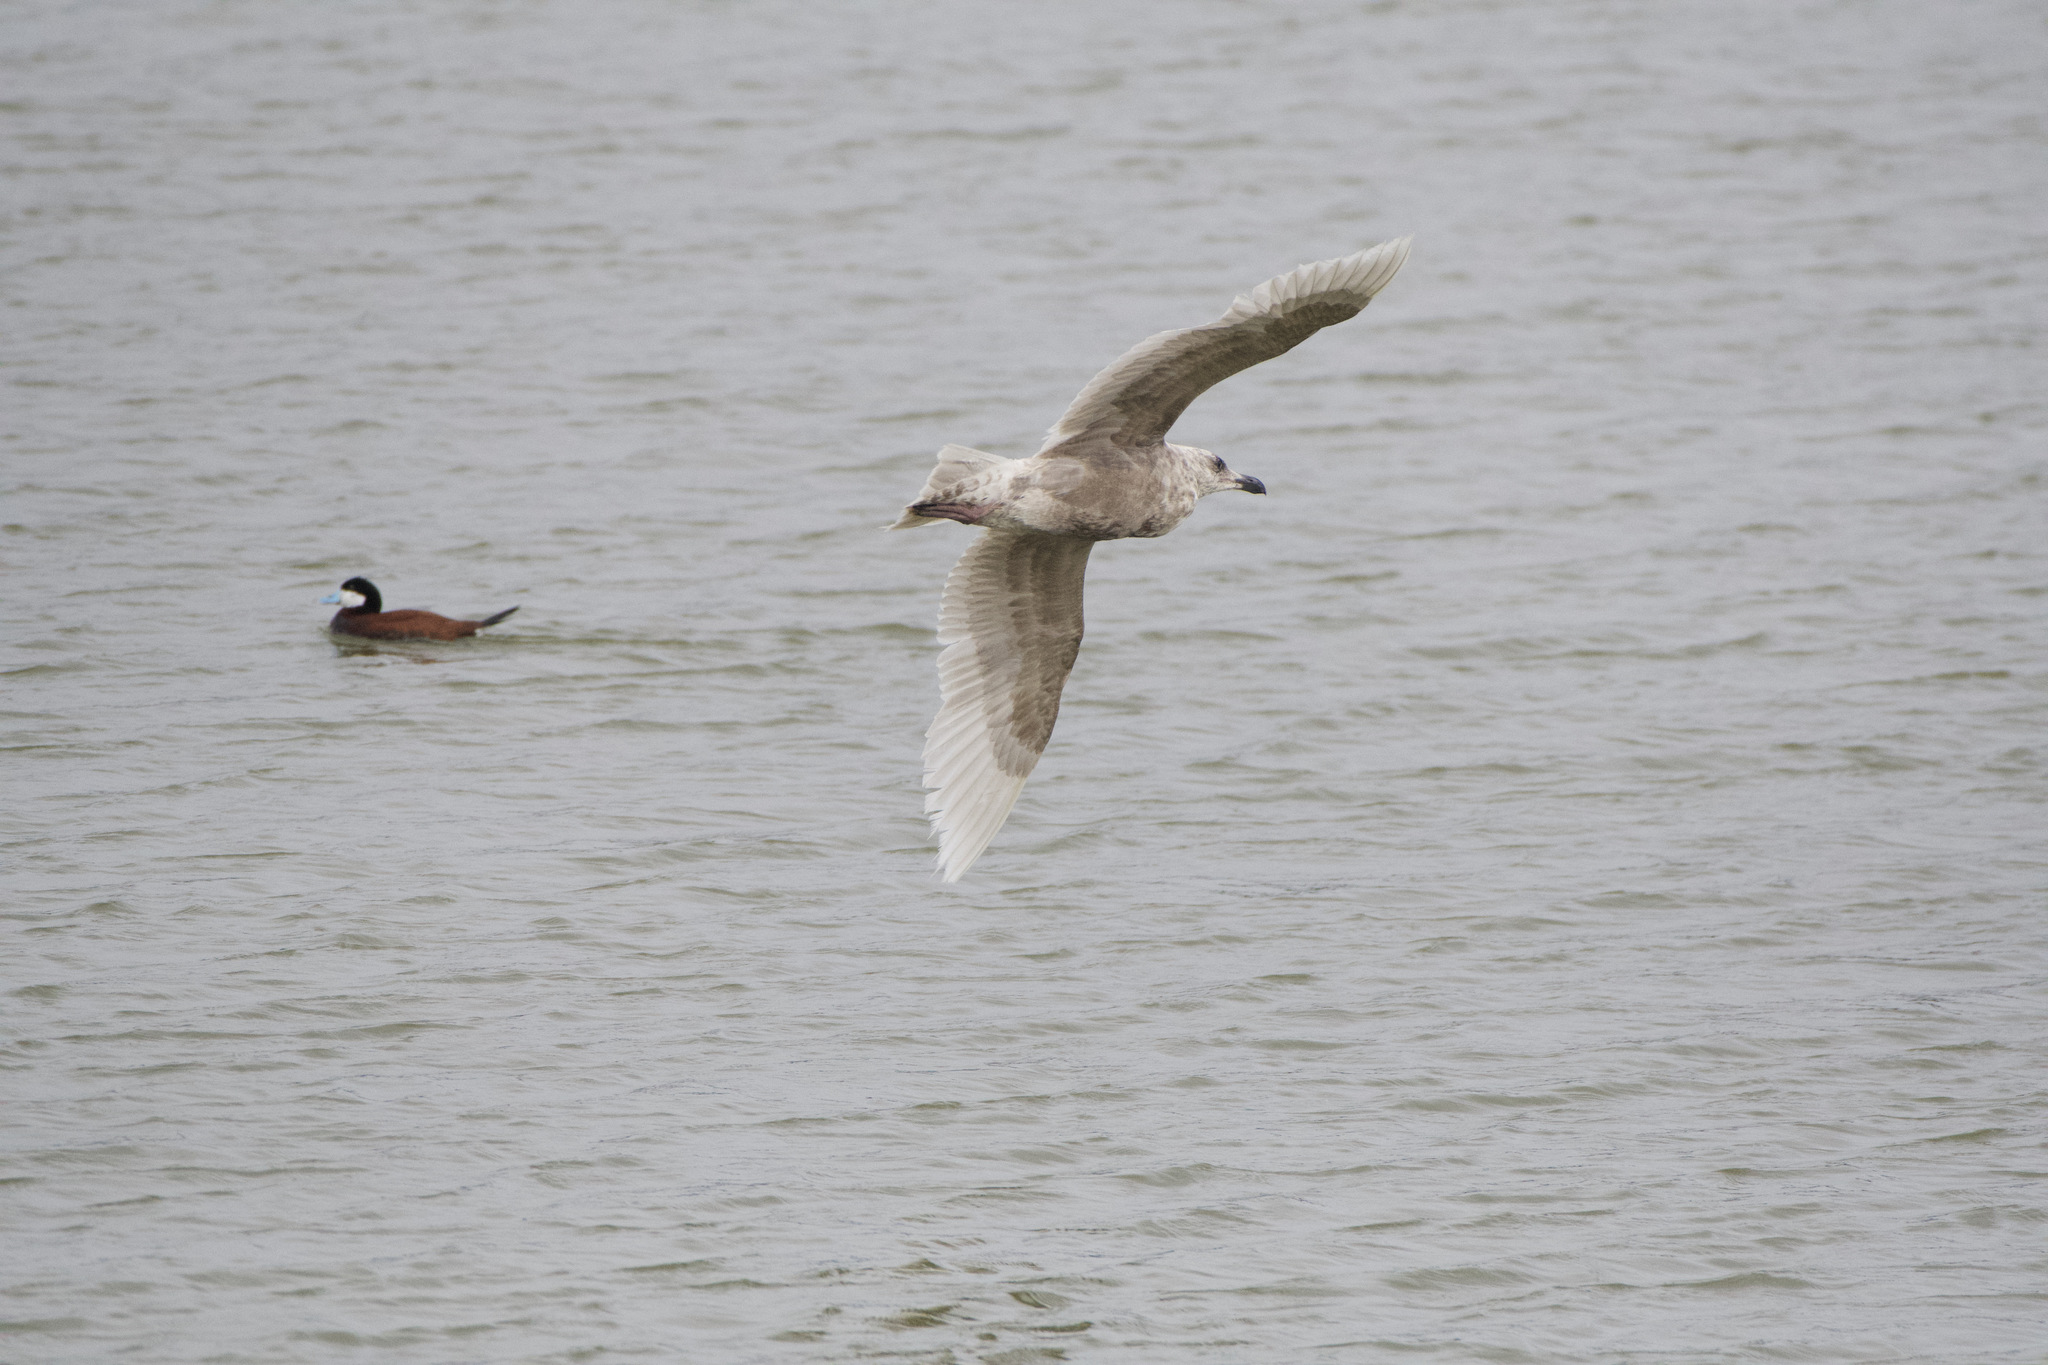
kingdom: Animalia
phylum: Chordata
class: Aves
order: Charadriiformes
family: Laridae
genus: Larus
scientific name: Larus glaucescens
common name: Glaucous-winged gull
